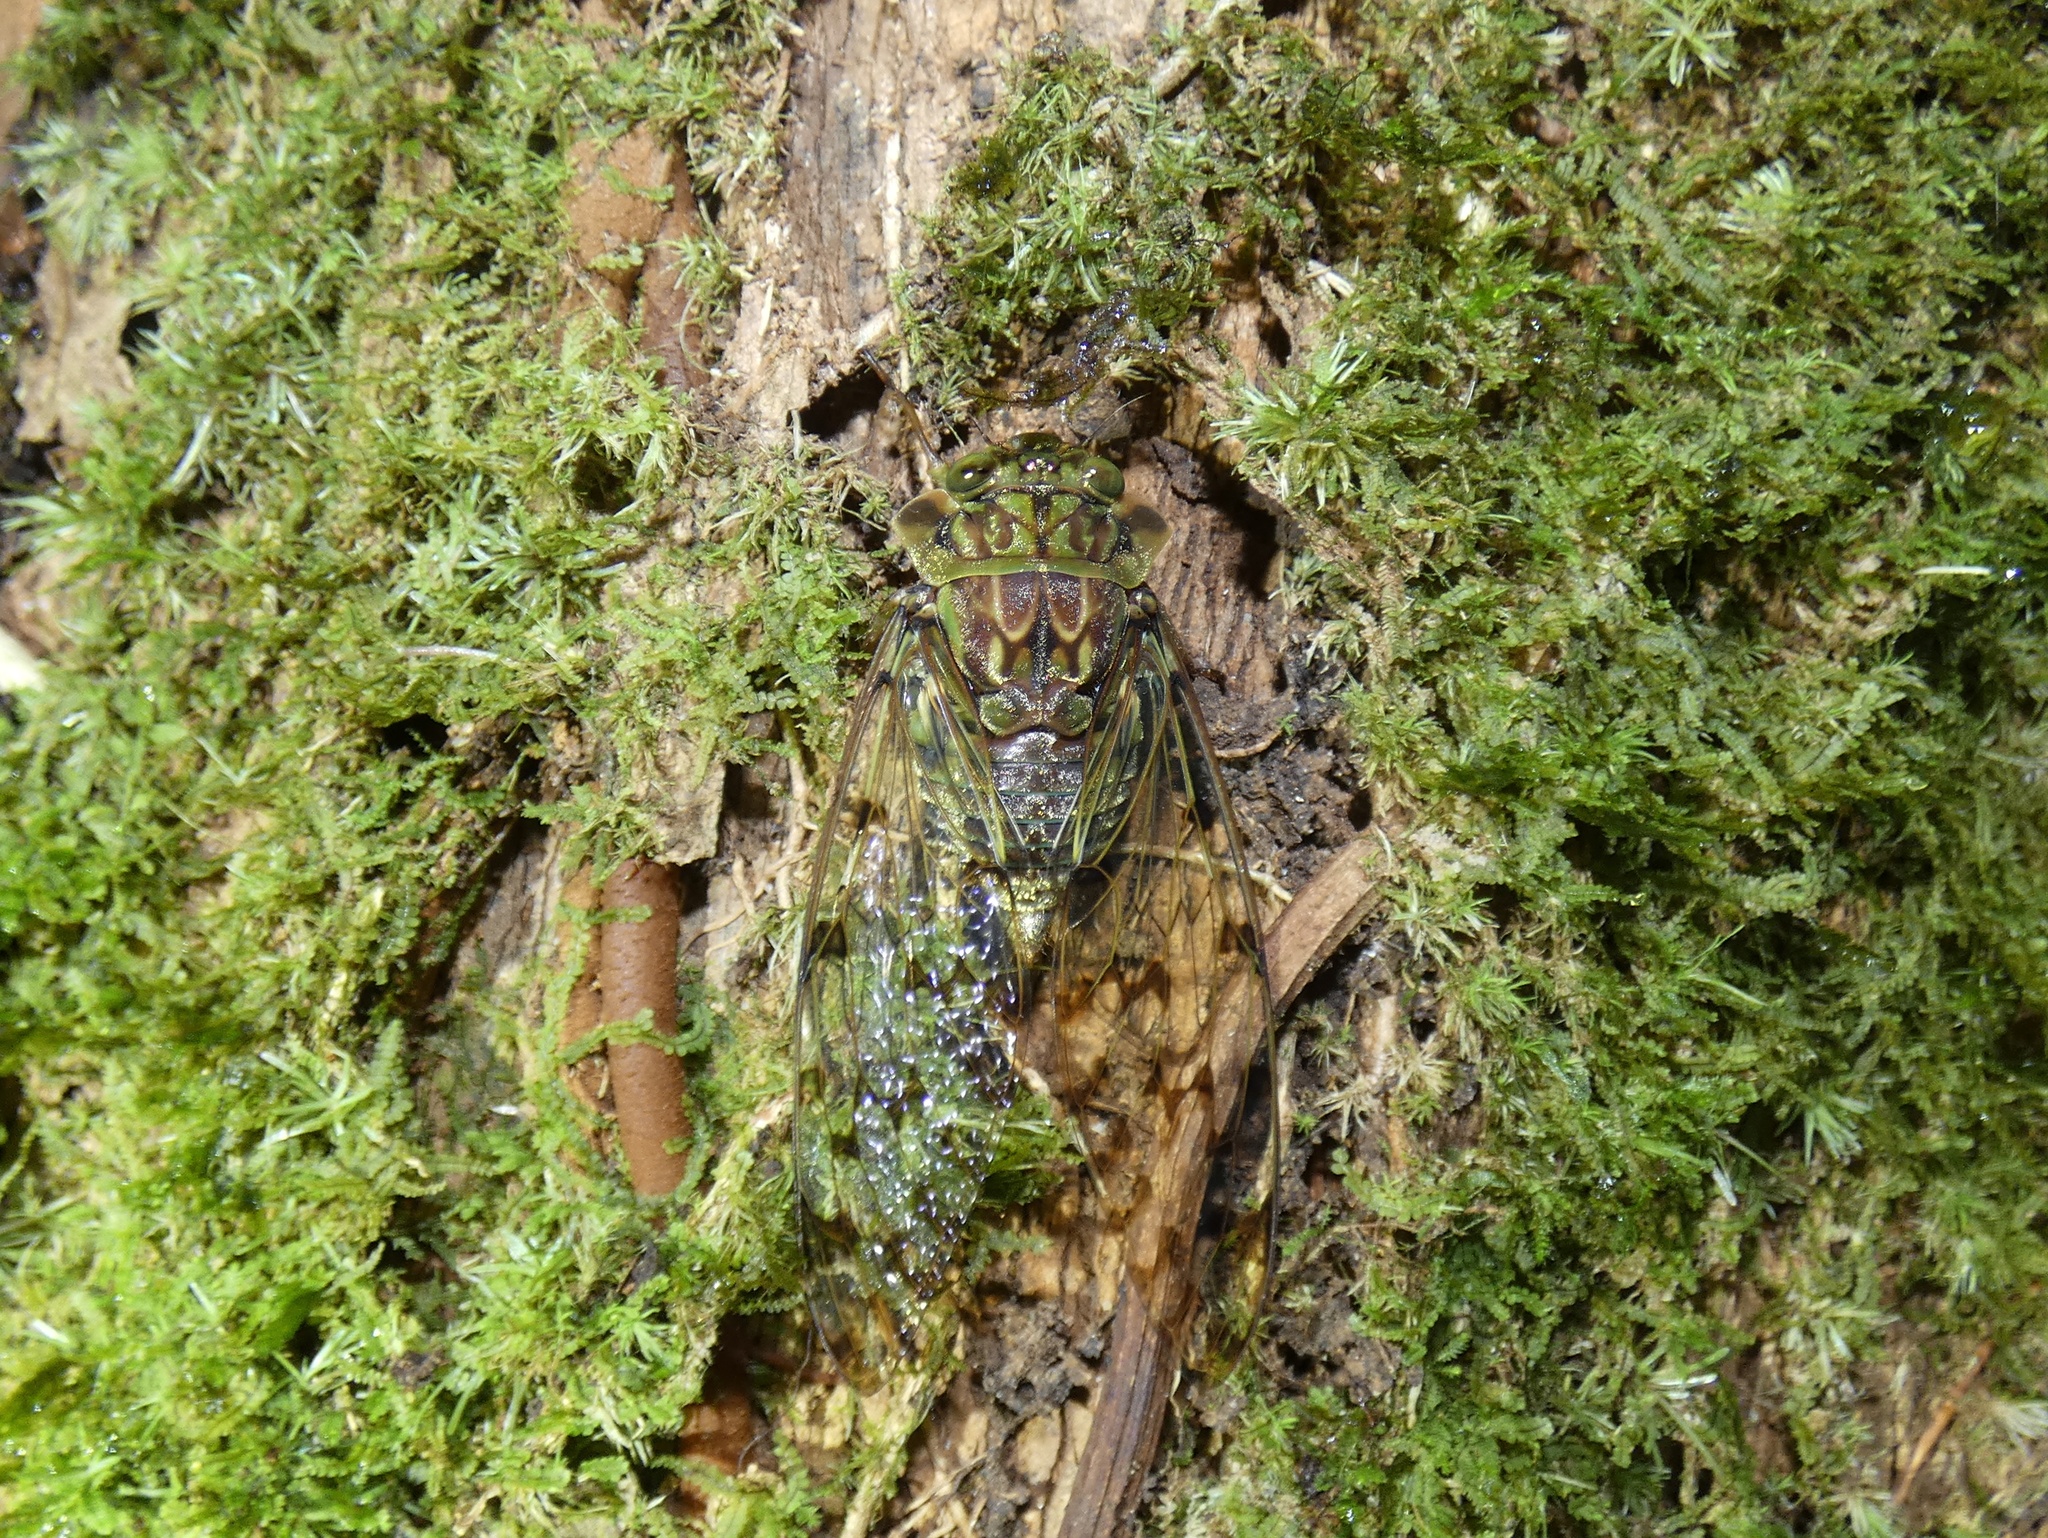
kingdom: Animalia
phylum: Arthropoda
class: Insecta
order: Hemiptera
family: Cicadidae
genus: Zammara
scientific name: Zammara nigriplaga
